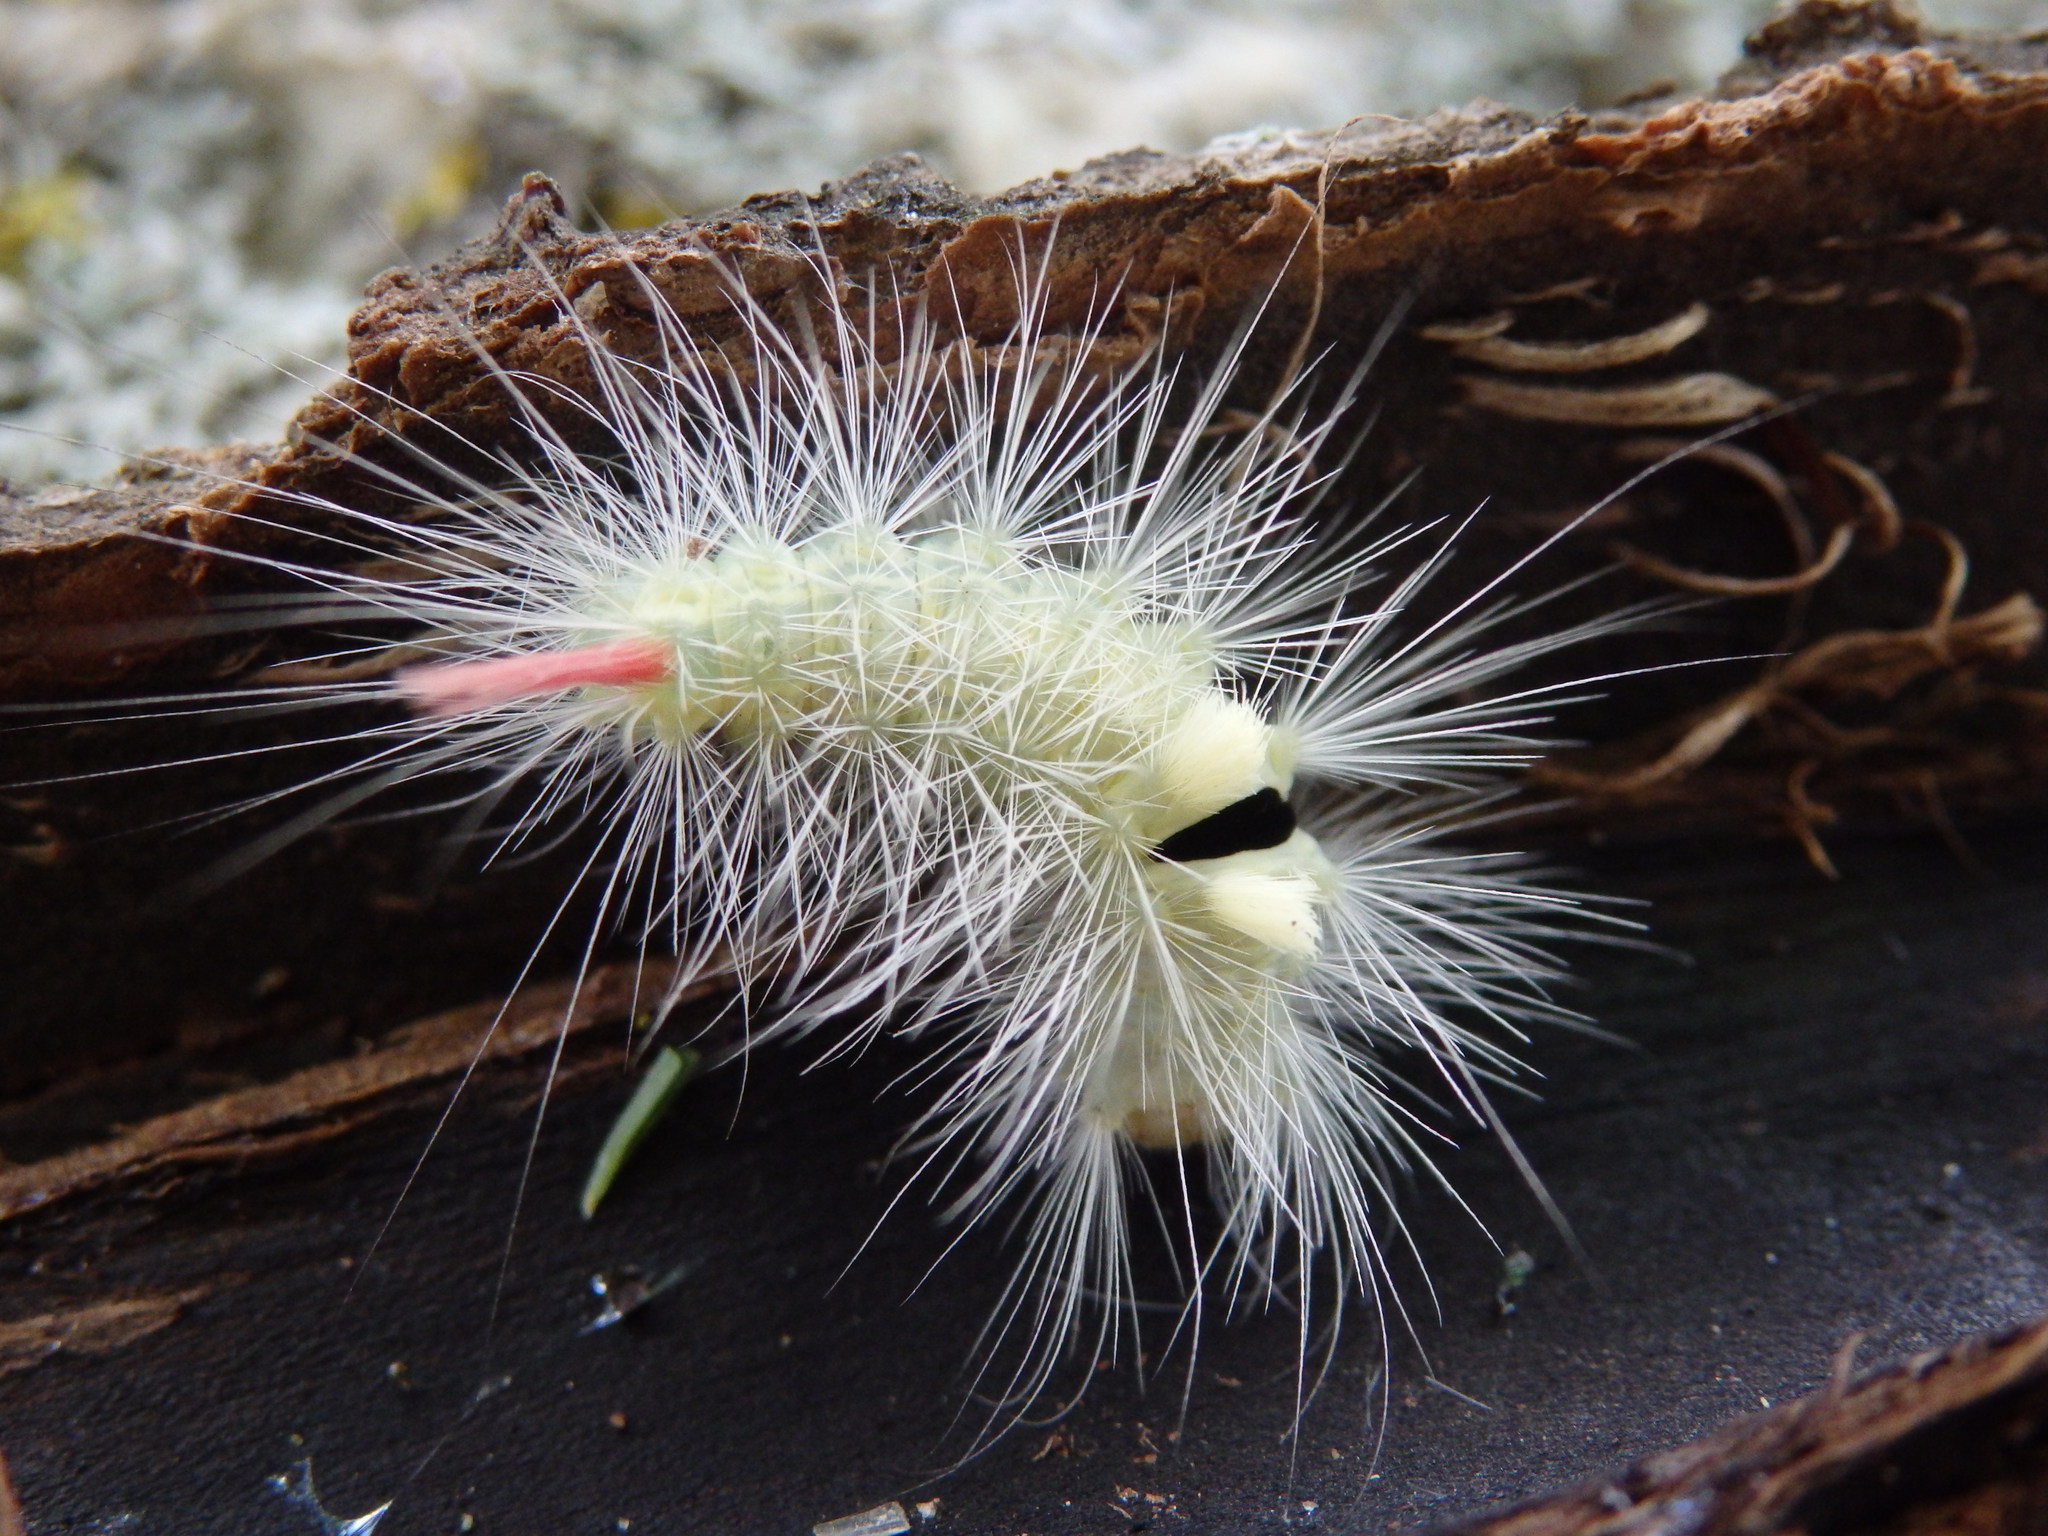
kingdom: Animalia
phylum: Arthropoda
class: Insecta
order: Lepidoptera
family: Erebidae
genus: Calliteara
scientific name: Calliteara pudibunda
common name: Pale tussock
